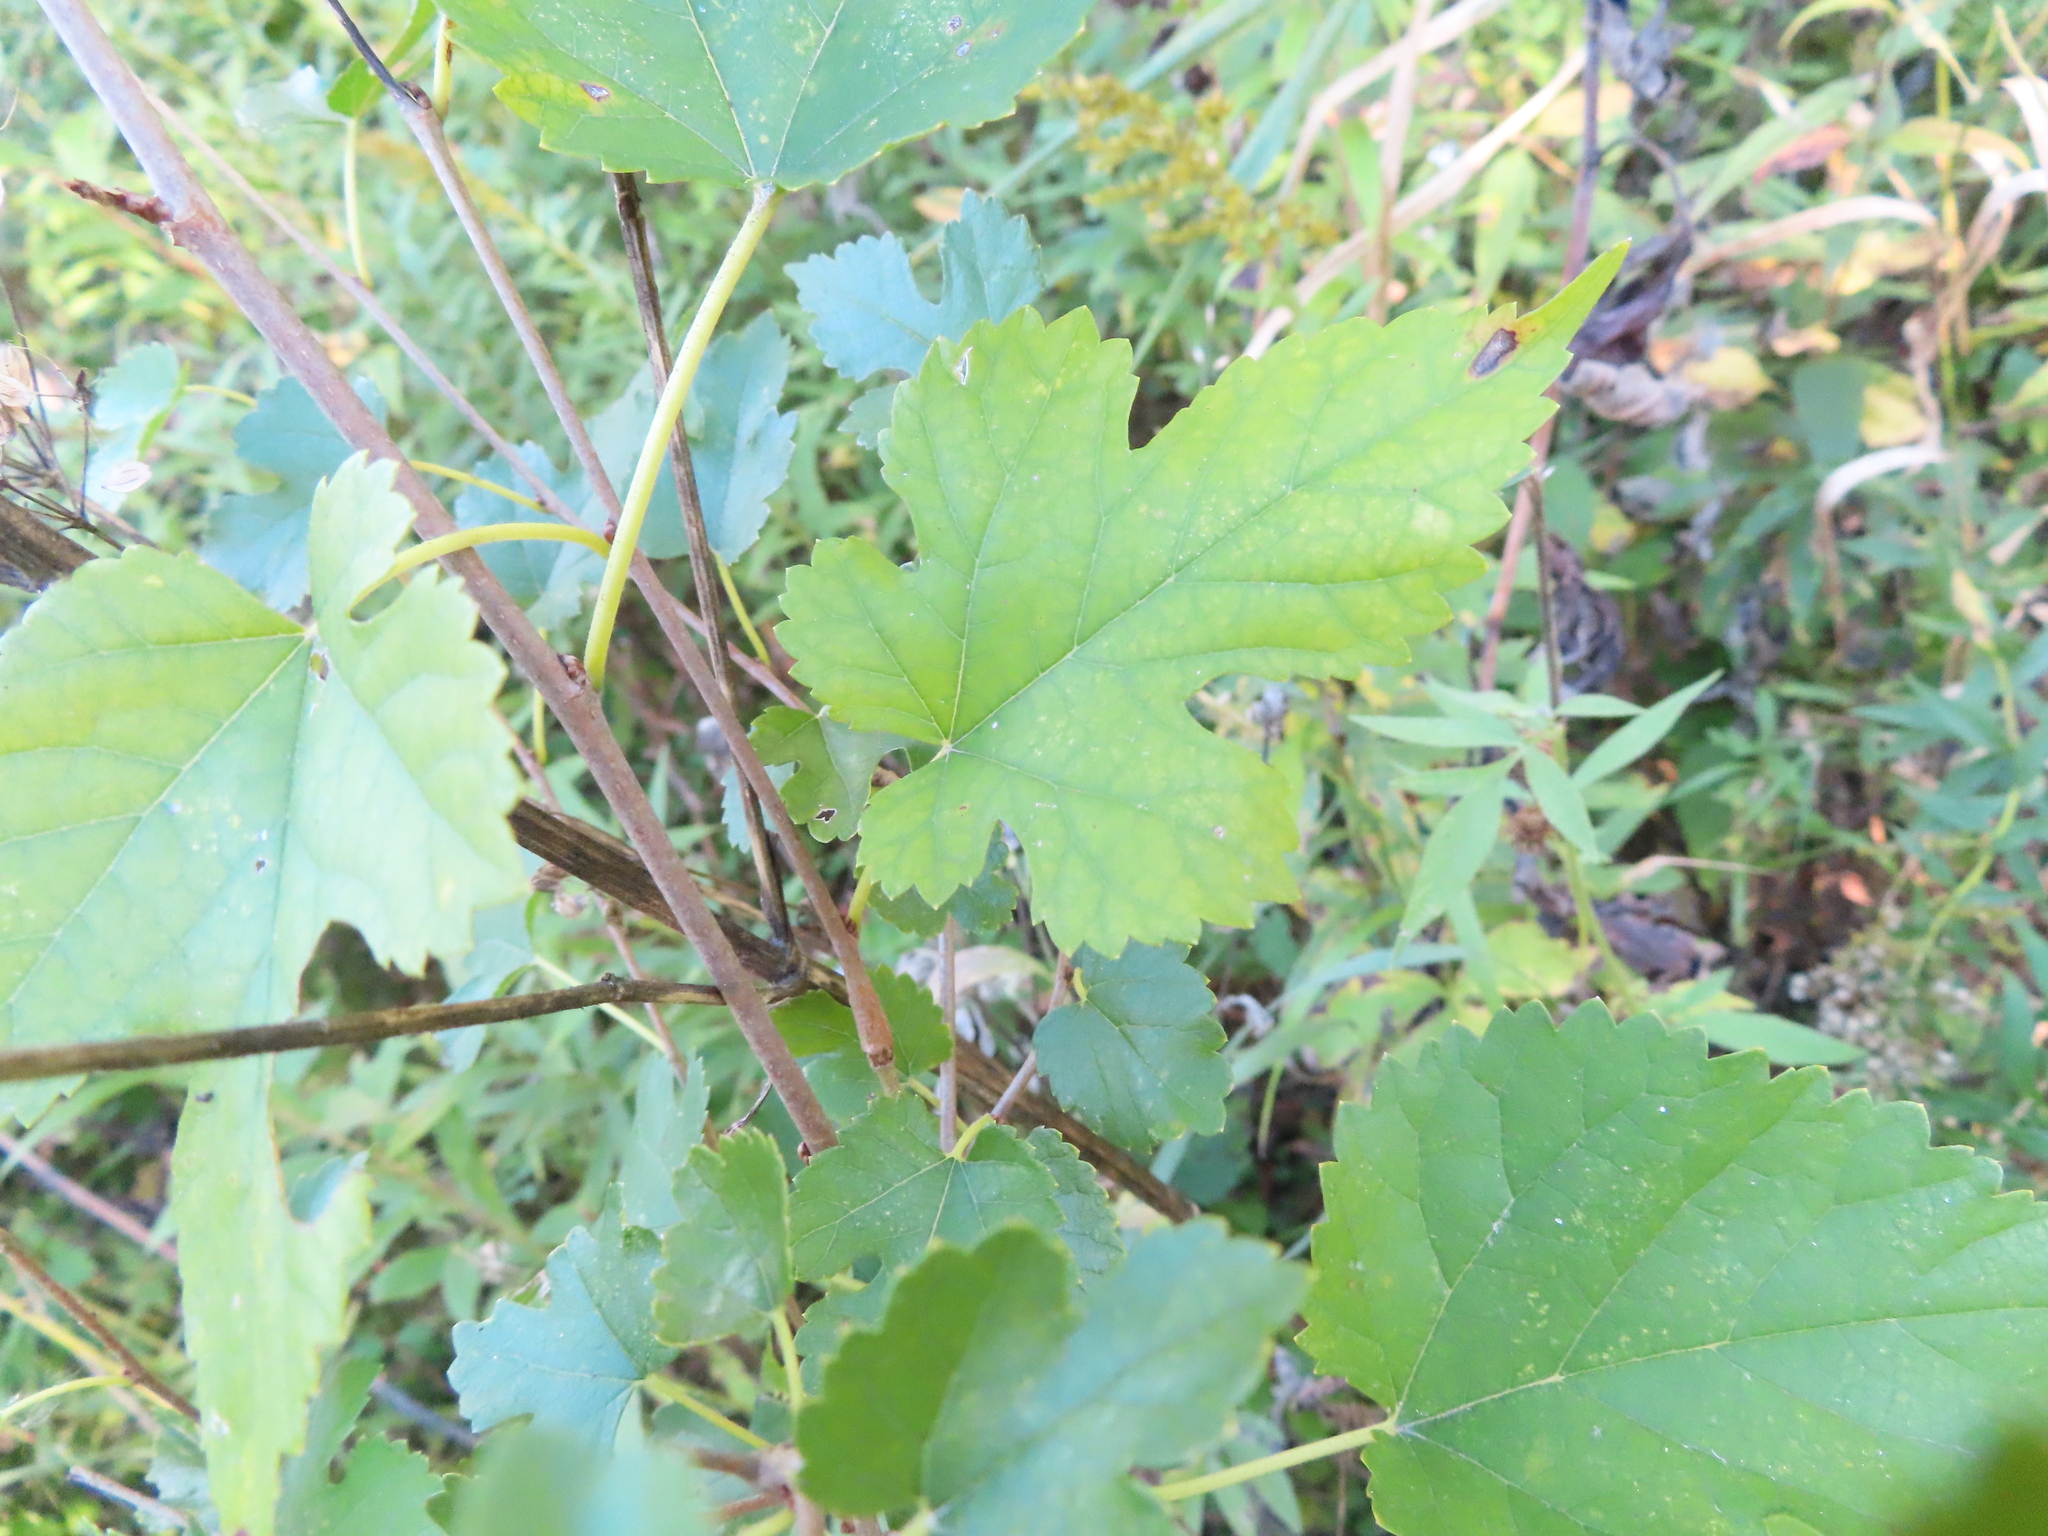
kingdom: Plantae
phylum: Tracheophyta
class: Magnoliopsida
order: Rosales
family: Moraceae
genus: Morus
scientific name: Morus alba
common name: White mulberry
